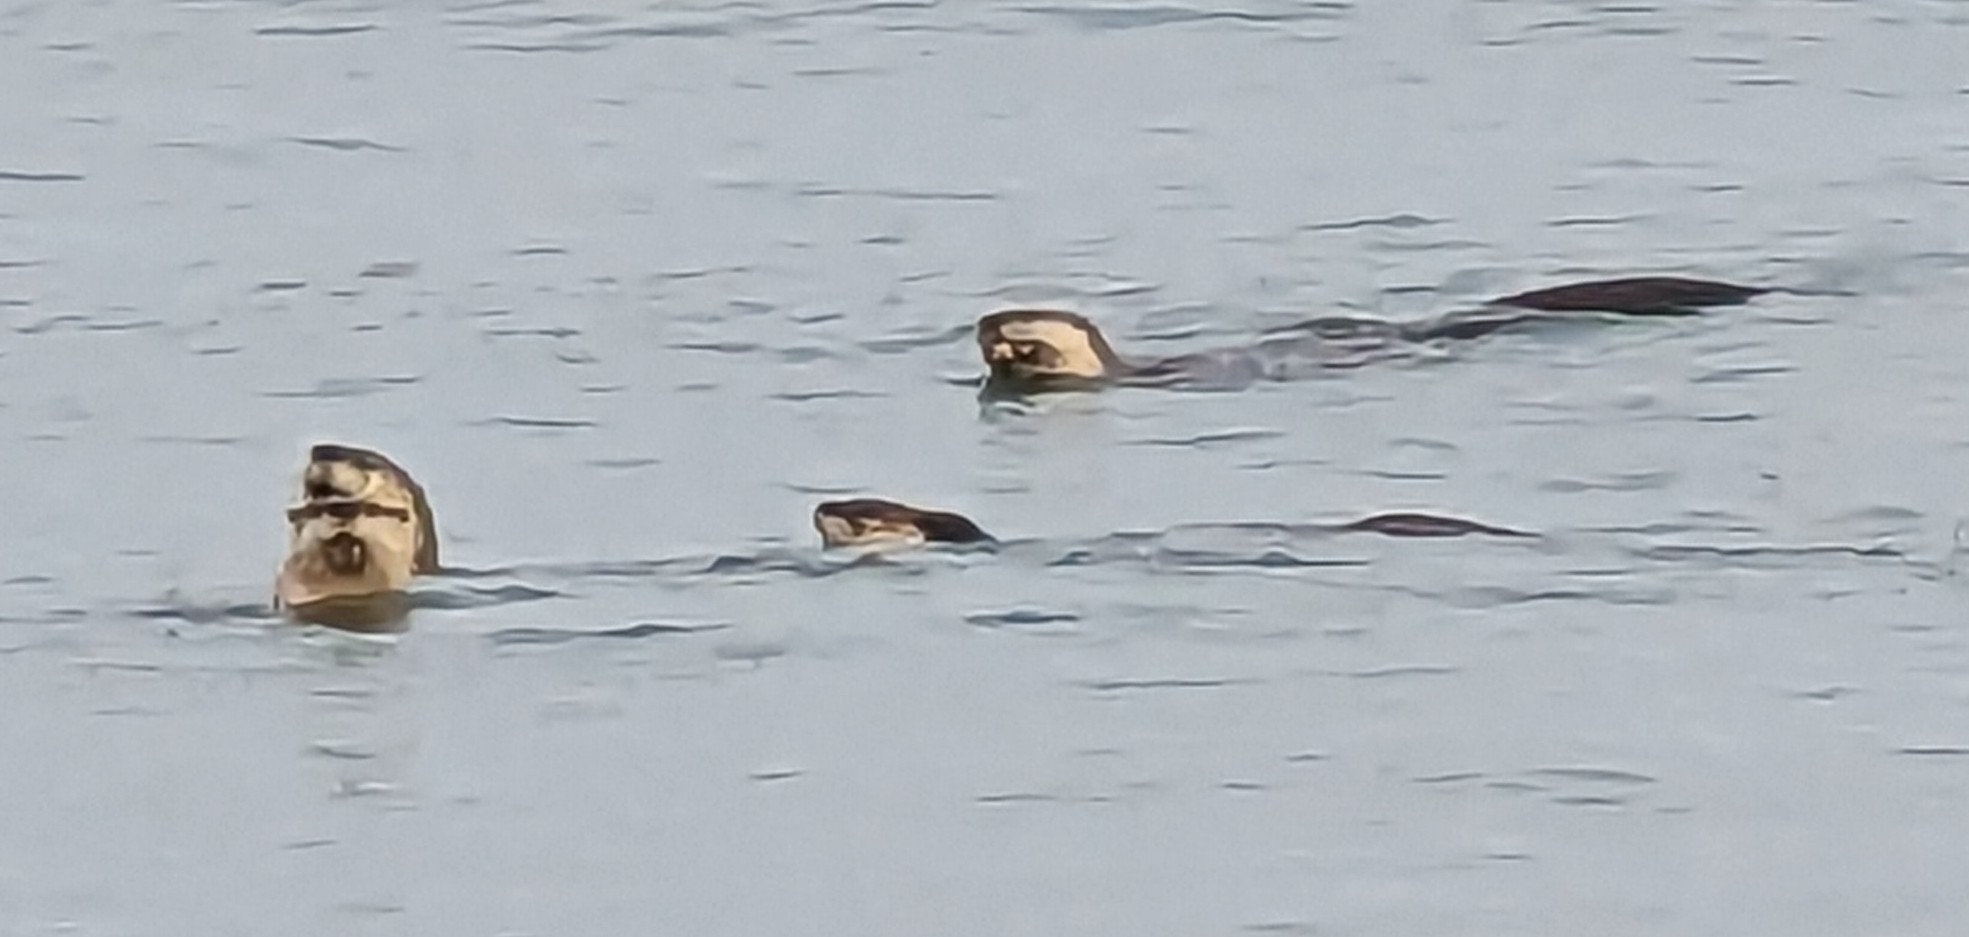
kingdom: Animalia
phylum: Chordata
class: Mammalia
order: Carnivora
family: Mustelidae
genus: Lontra
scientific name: Lontra canadensis
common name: North american river otter
